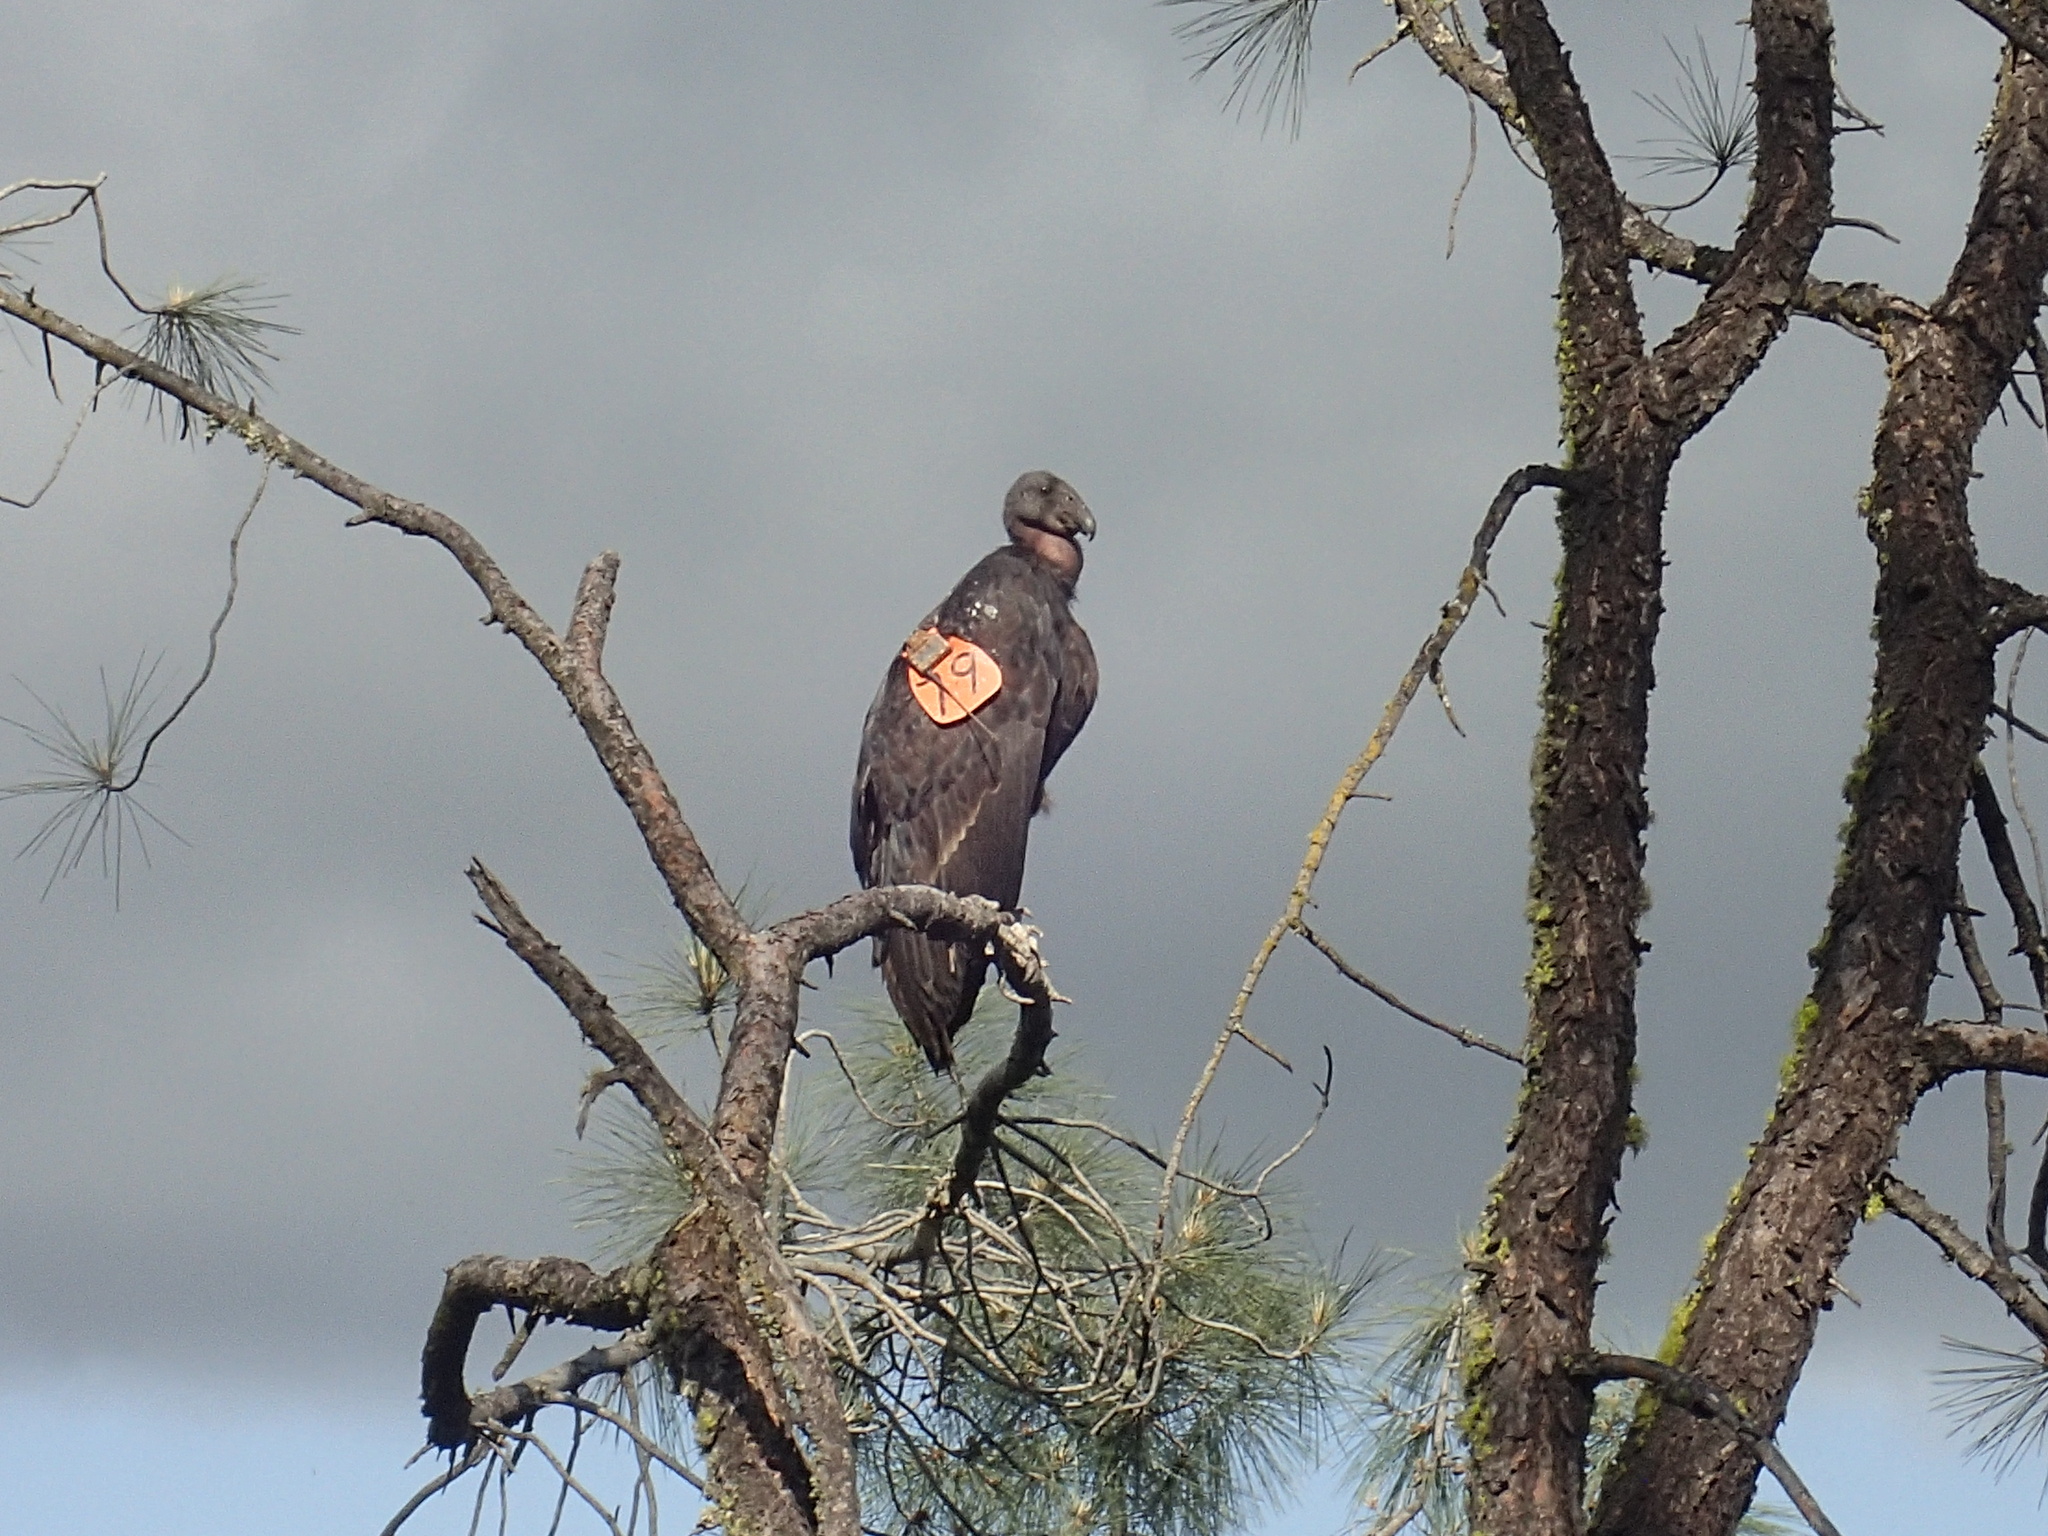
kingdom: Animalia
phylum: Chordata
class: Aves
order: Accipitriformes
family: Cathartidae
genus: Gymnogyps
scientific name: Gymnogyps californianus
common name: California condor
